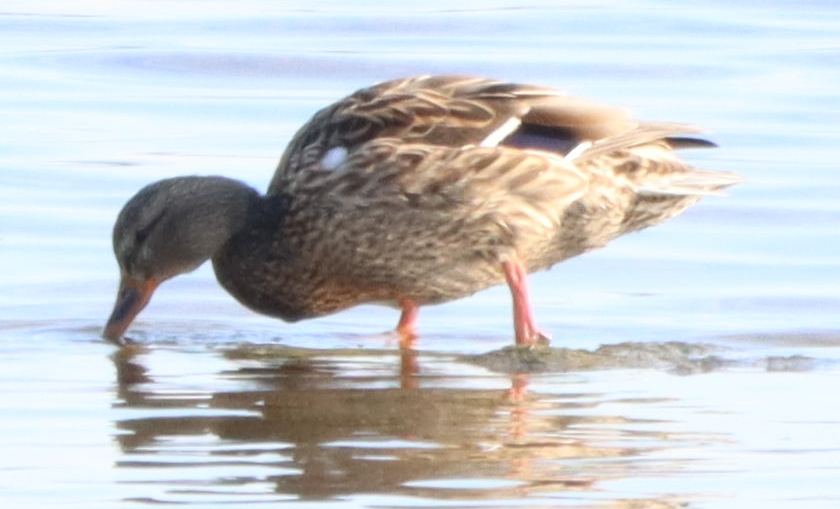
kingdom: Animalia
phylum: Chordata
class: Aves
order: Anseriformes
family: Anatidae
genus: Anas
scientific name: Anas platyrhynchos
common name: Mallard
